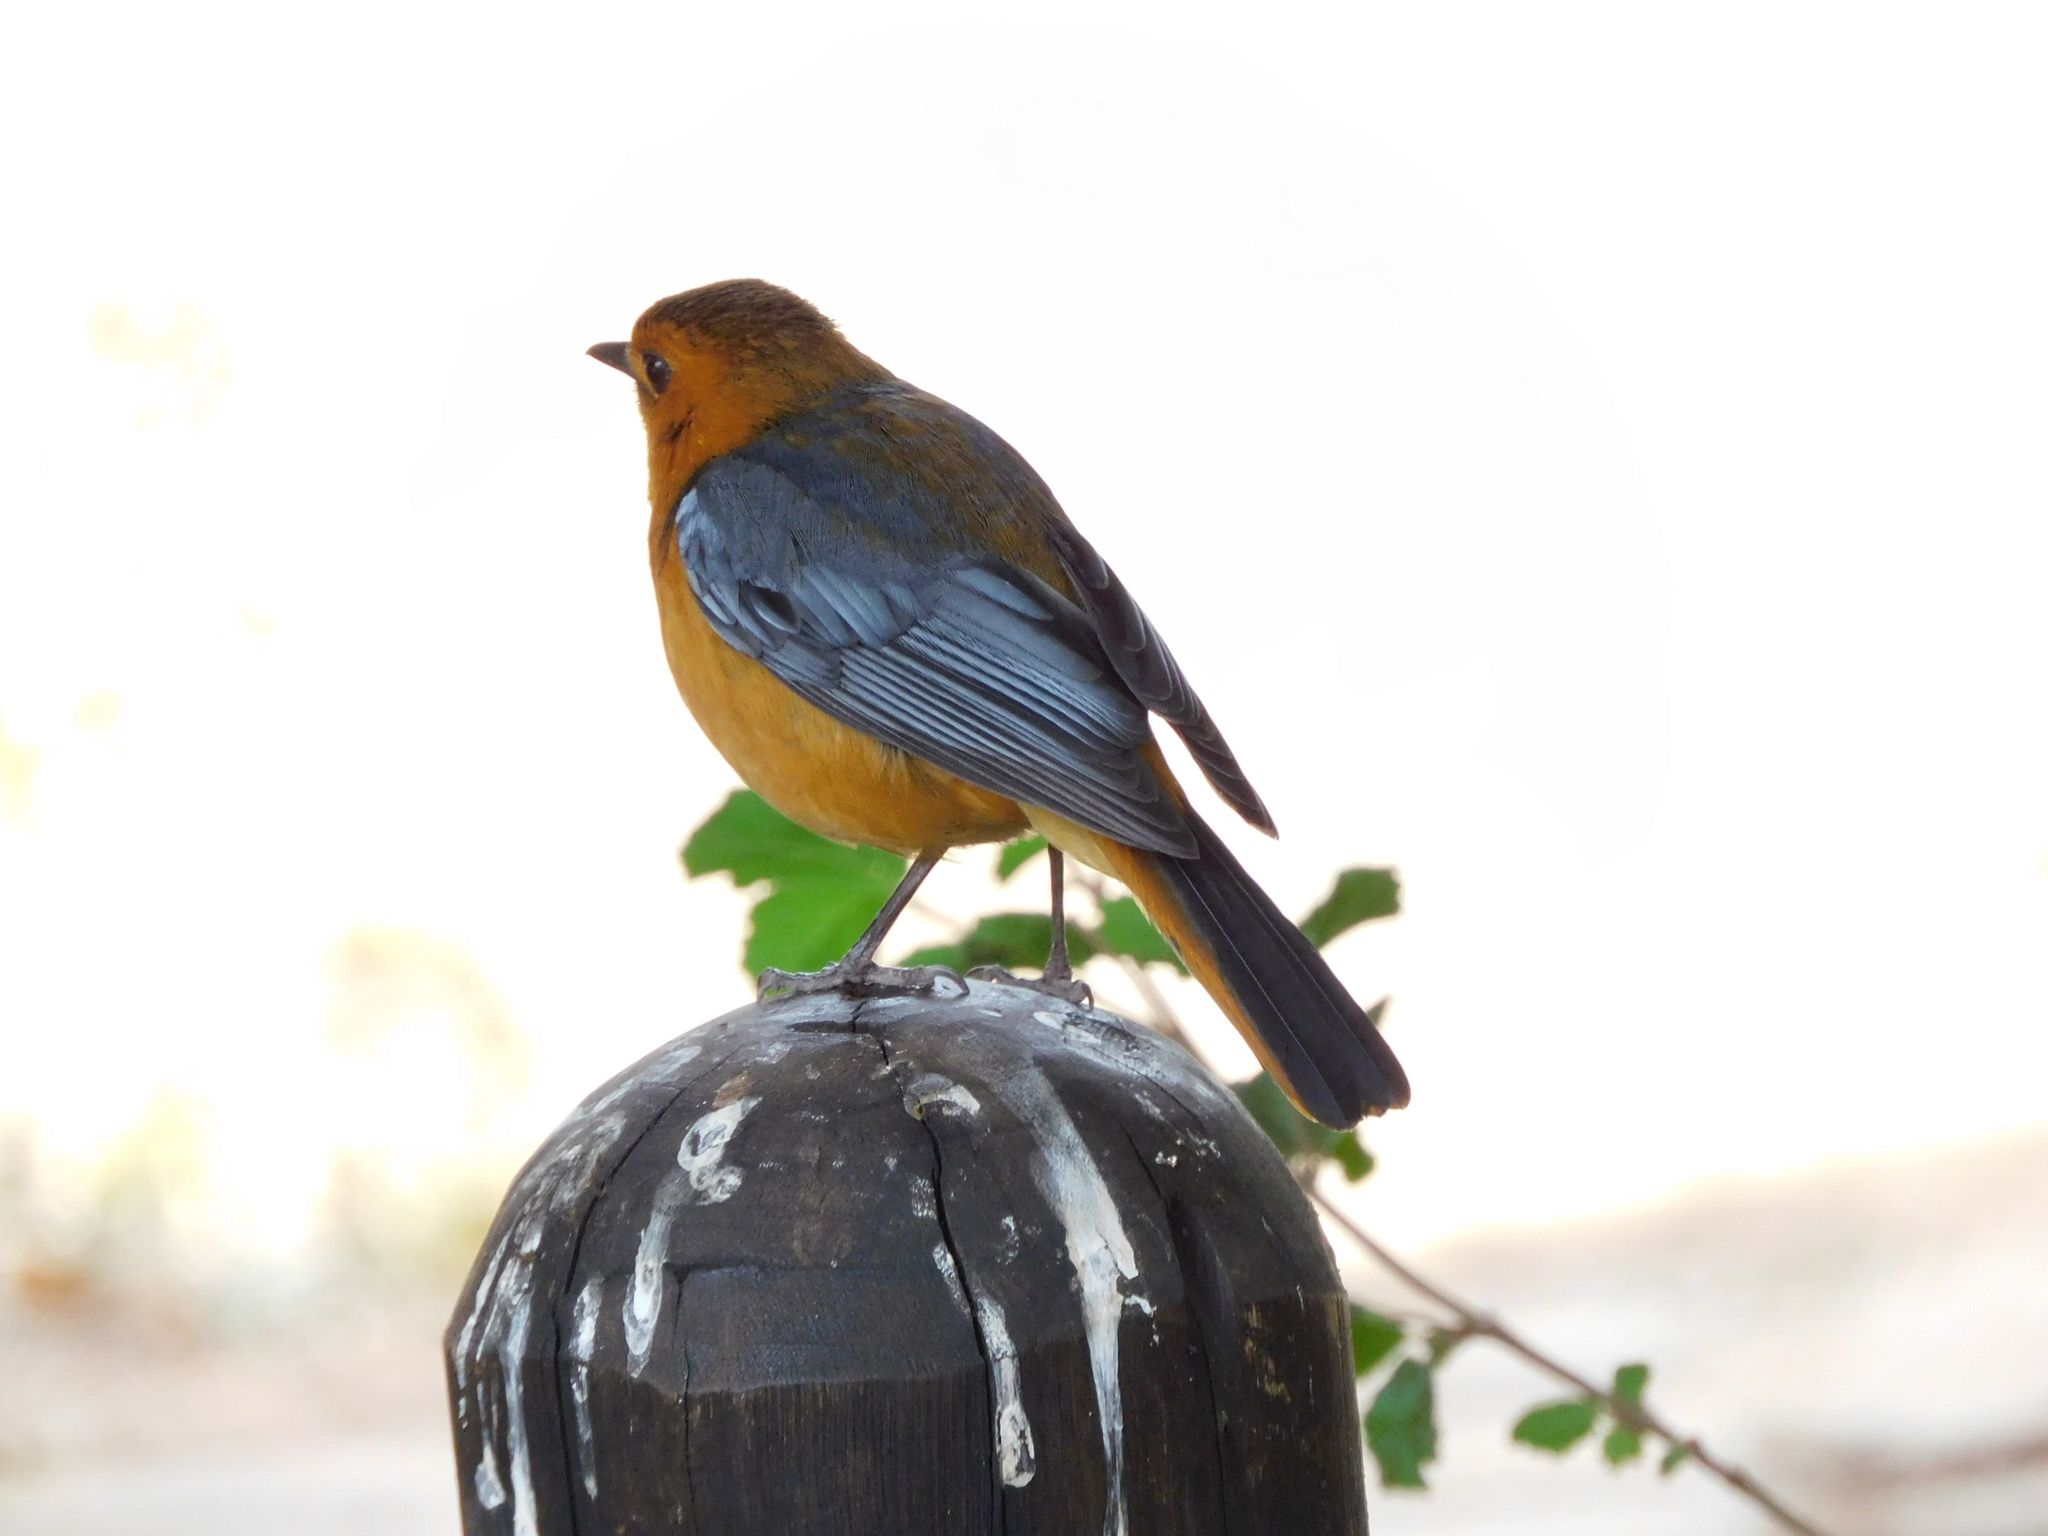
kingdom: Animalia
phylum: Chordata
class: Aves
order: Passeriformes
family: Muscicapidae
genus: Cossypha
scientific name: Cossypha natalensis
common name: Red-capped robin-chat
